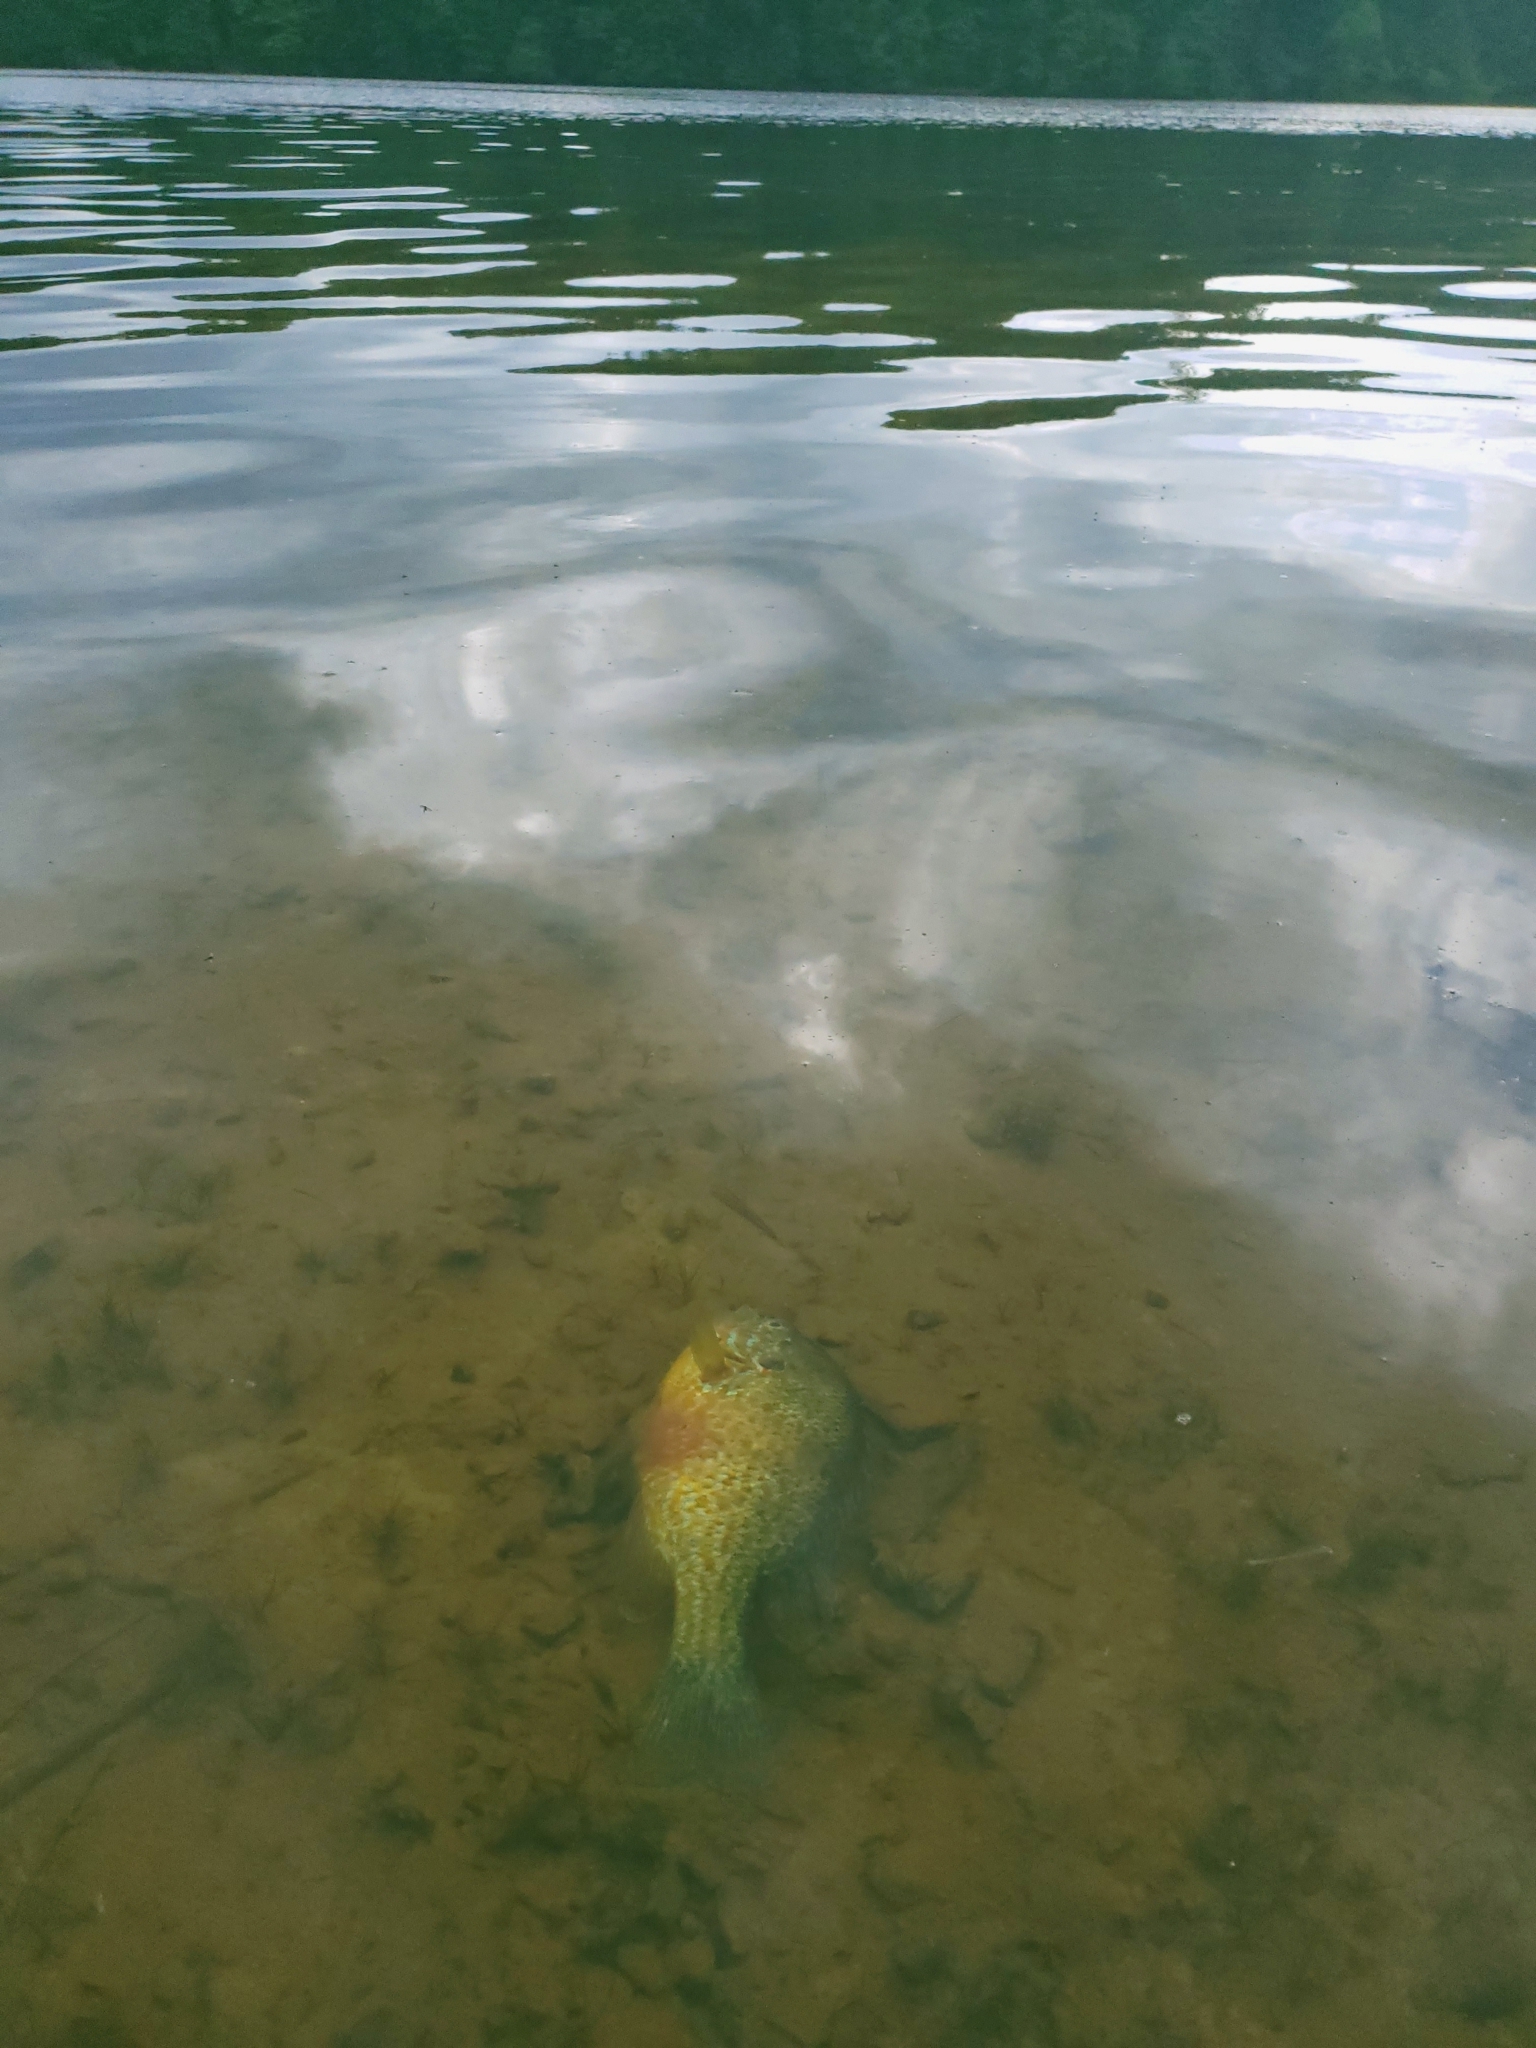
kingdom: Animalia
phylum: Chordata
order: Perciformes
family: Centrarchidae
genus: Lepomis
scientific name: Lepomis gibbosus
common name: Pumpkinseed
